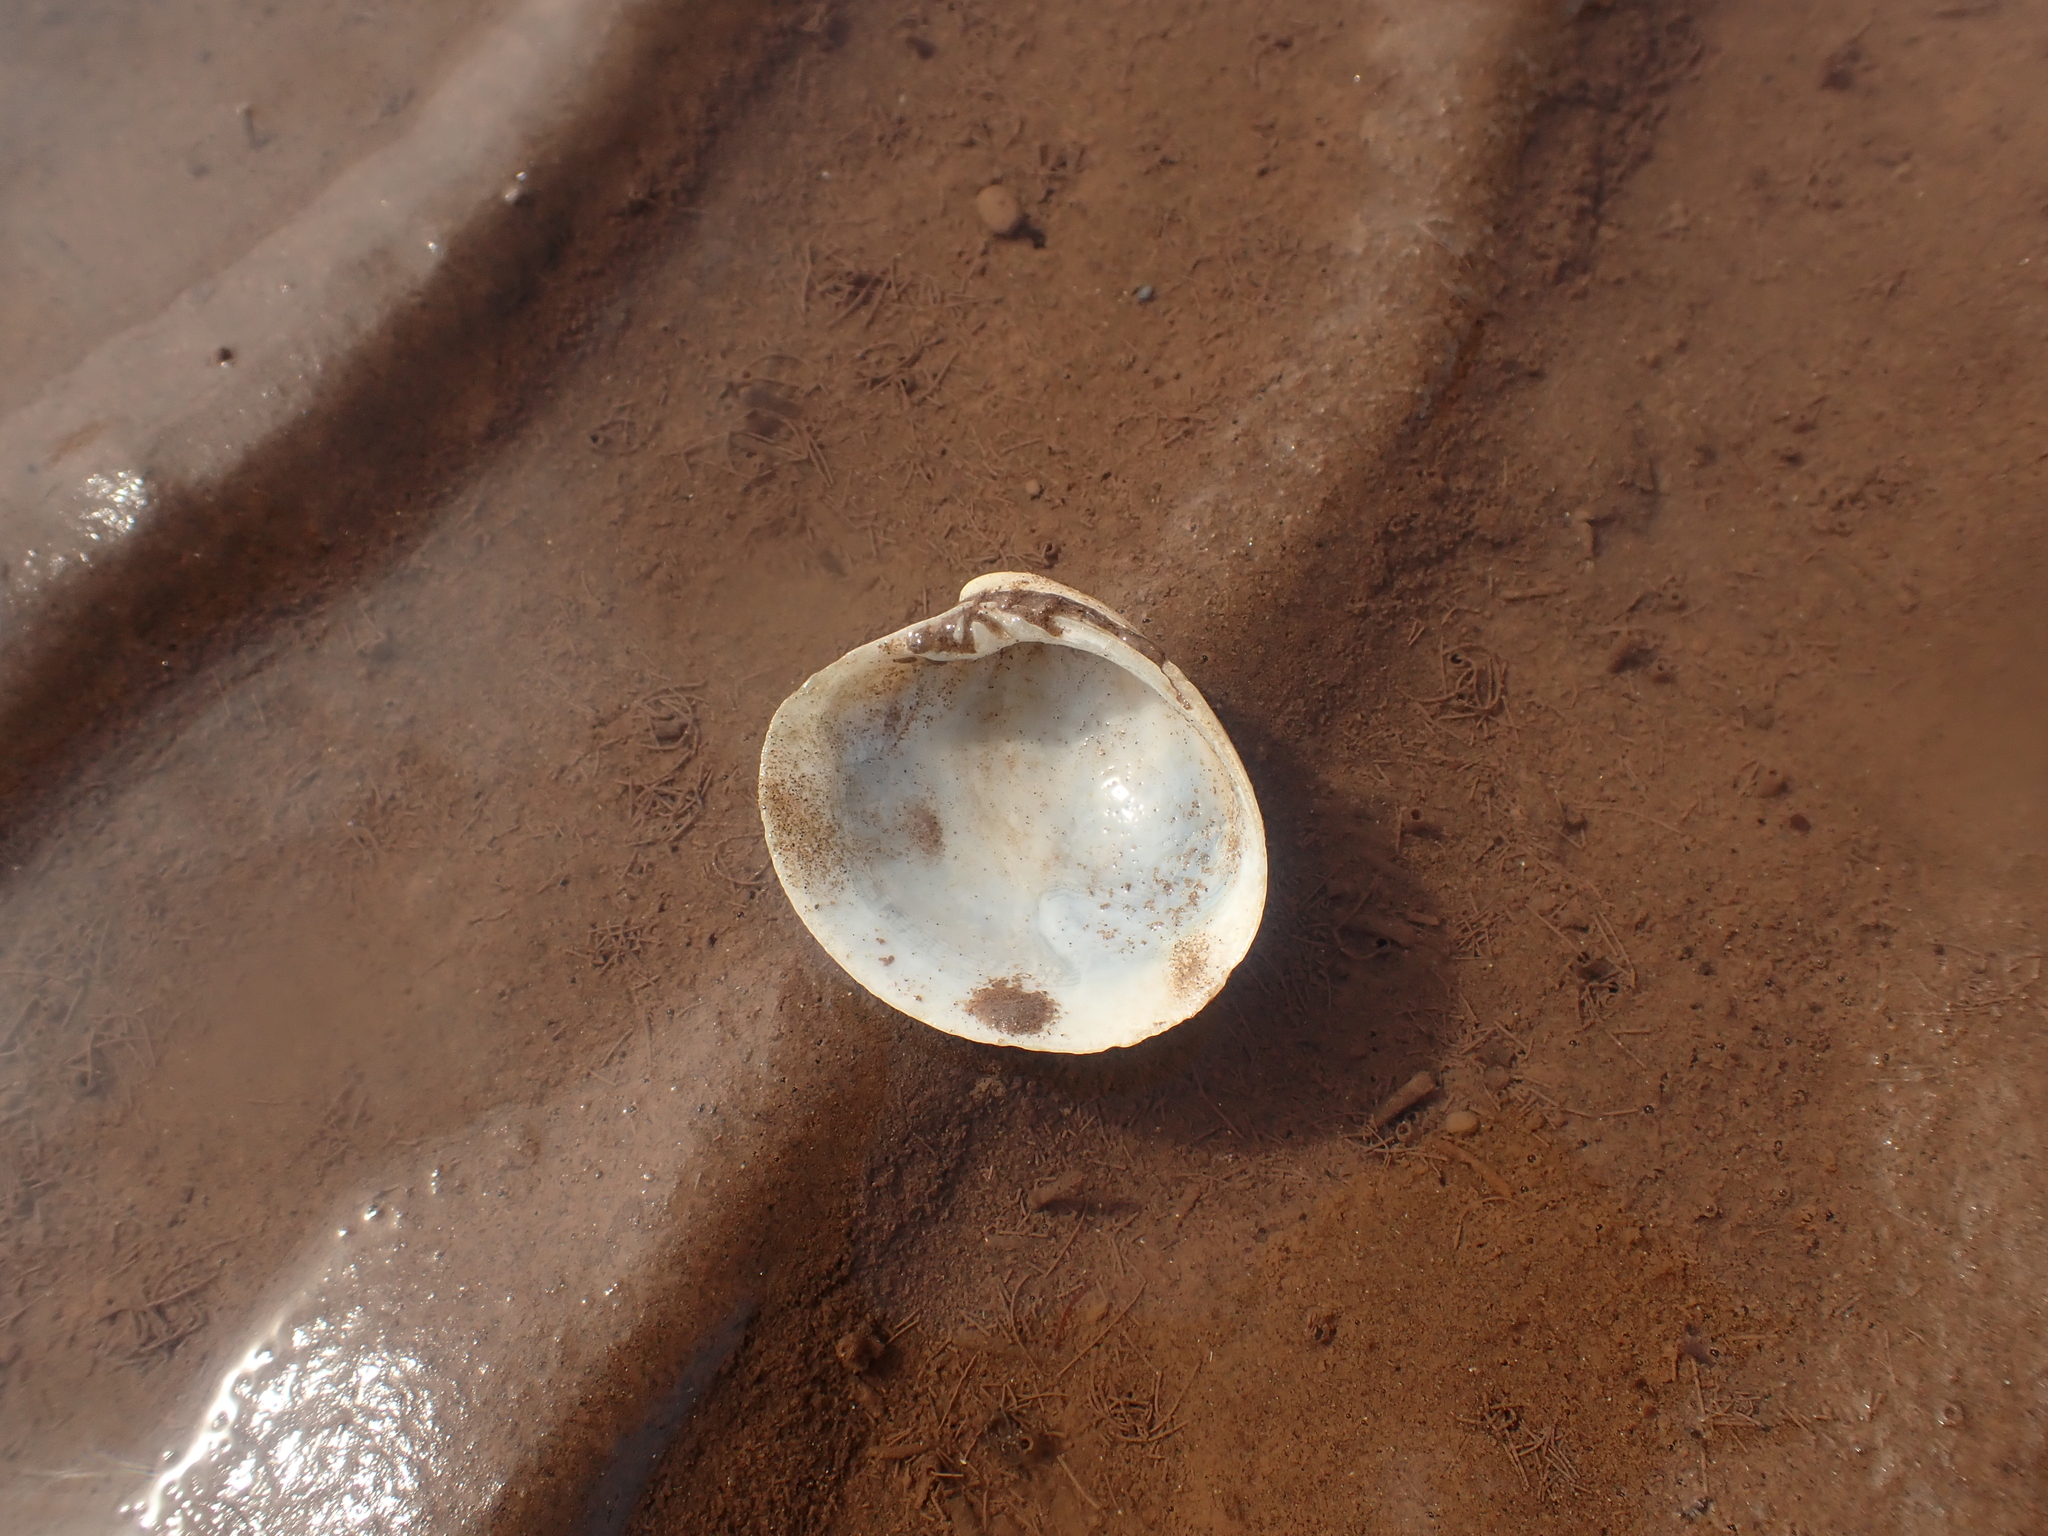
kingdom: Animalia
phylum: Mollusca
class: Bivalvia
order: Venerida
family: Veneridae
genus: Agriopoma
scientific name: Agriopoma morrhuanum
